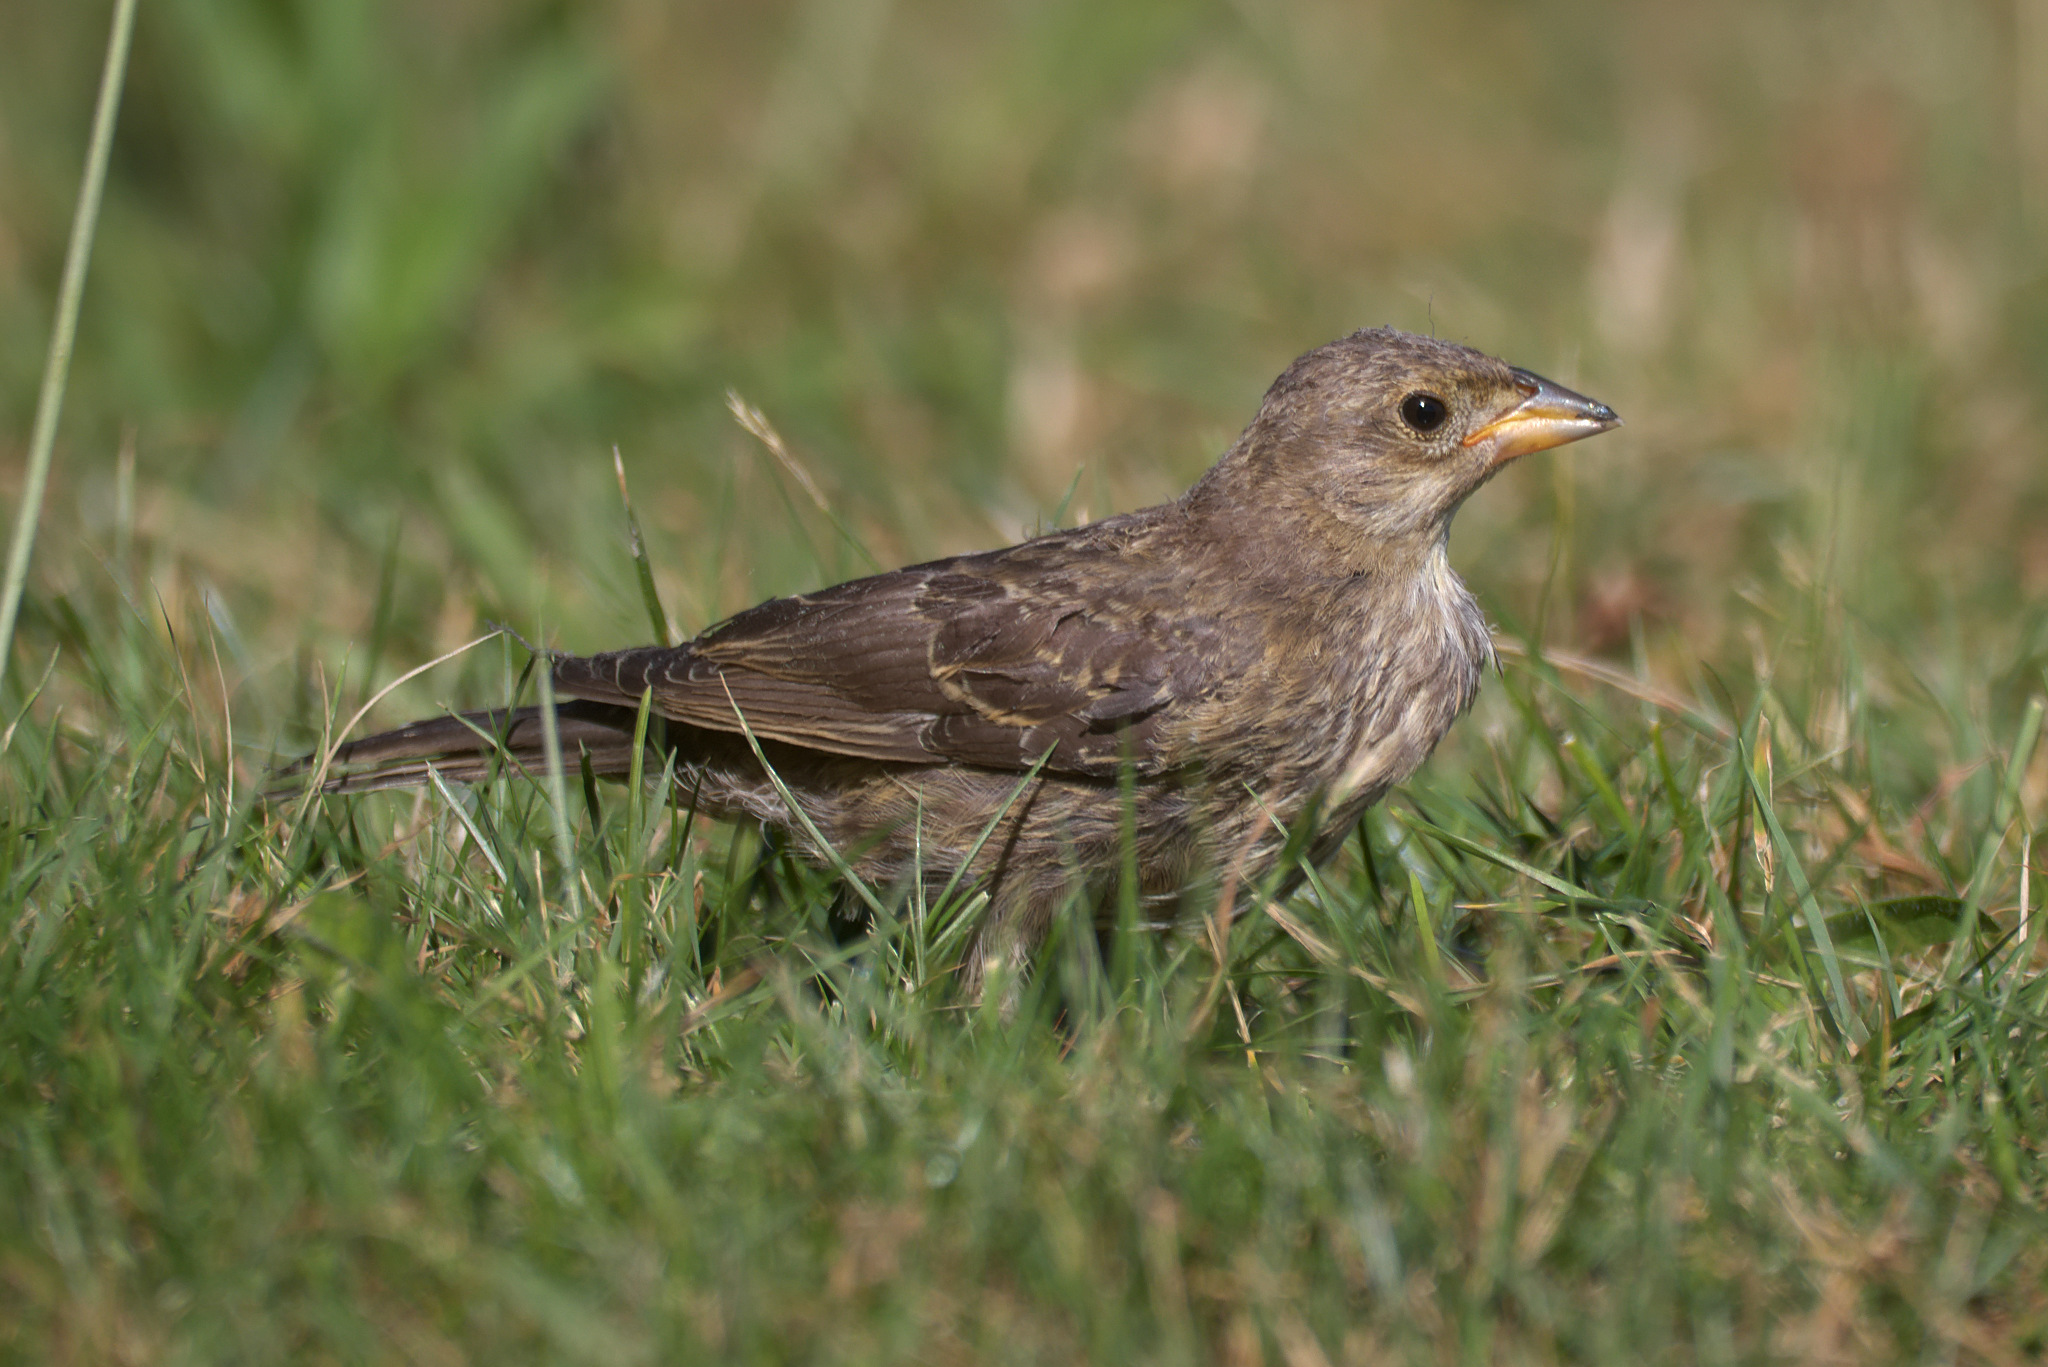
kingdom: Animalia
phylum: Chordata
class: Aves
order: Passeriformes
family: Icteridae
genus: Molothrus
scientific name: Molothrus ater
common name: Brown-headed cowbird
